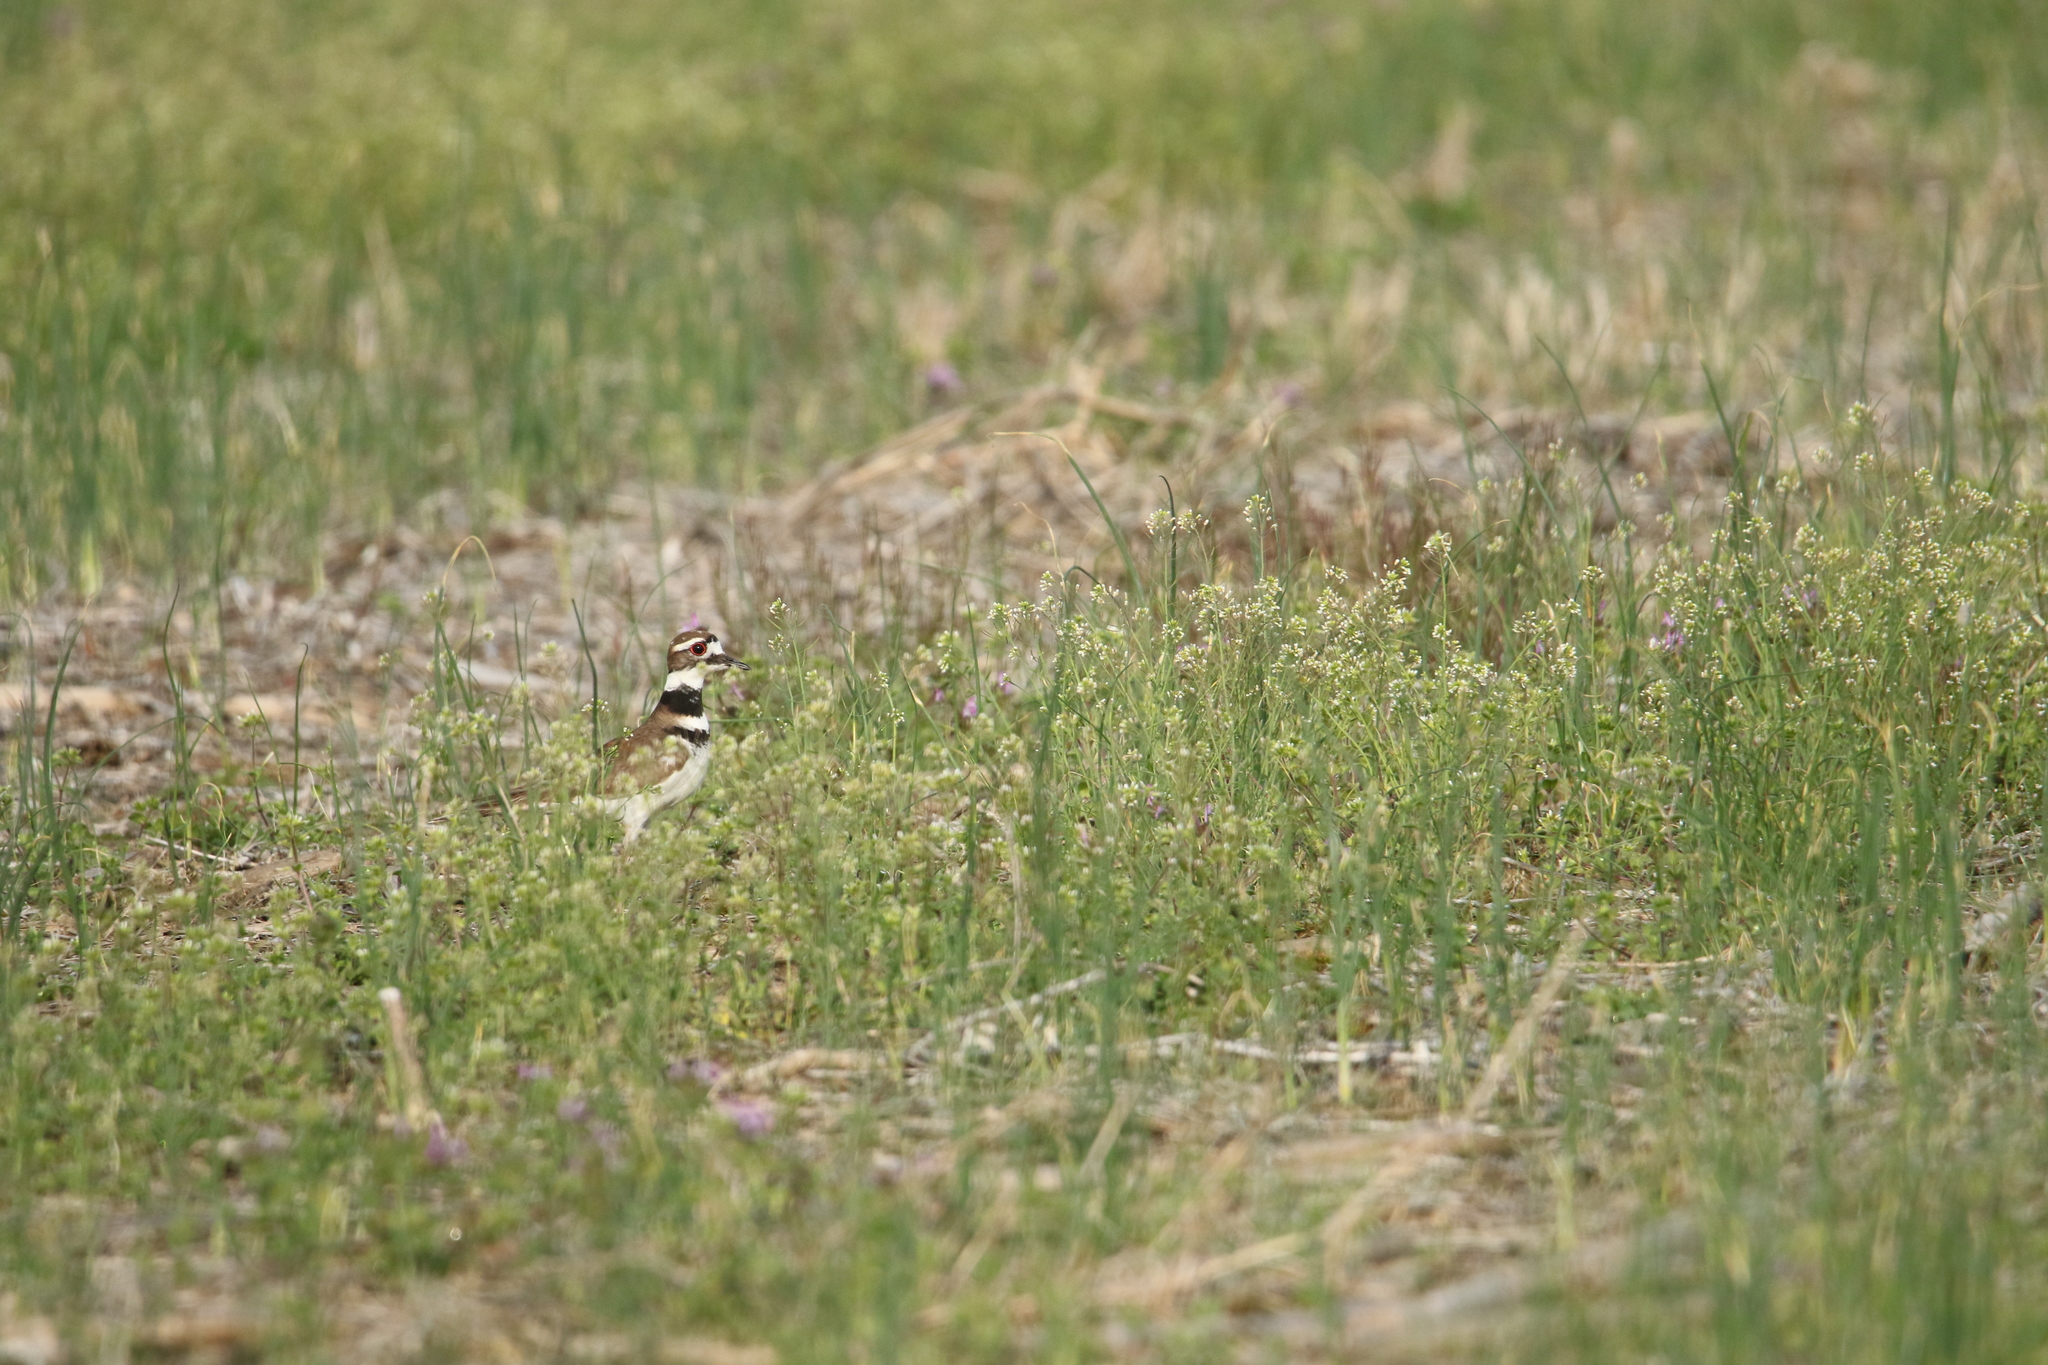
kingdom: Animalia
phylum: Chordata
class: Aves
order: Charadriiformes
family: Charadriidae
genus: Charadrius
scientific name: Charadrius vociferus
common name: Killdeer
